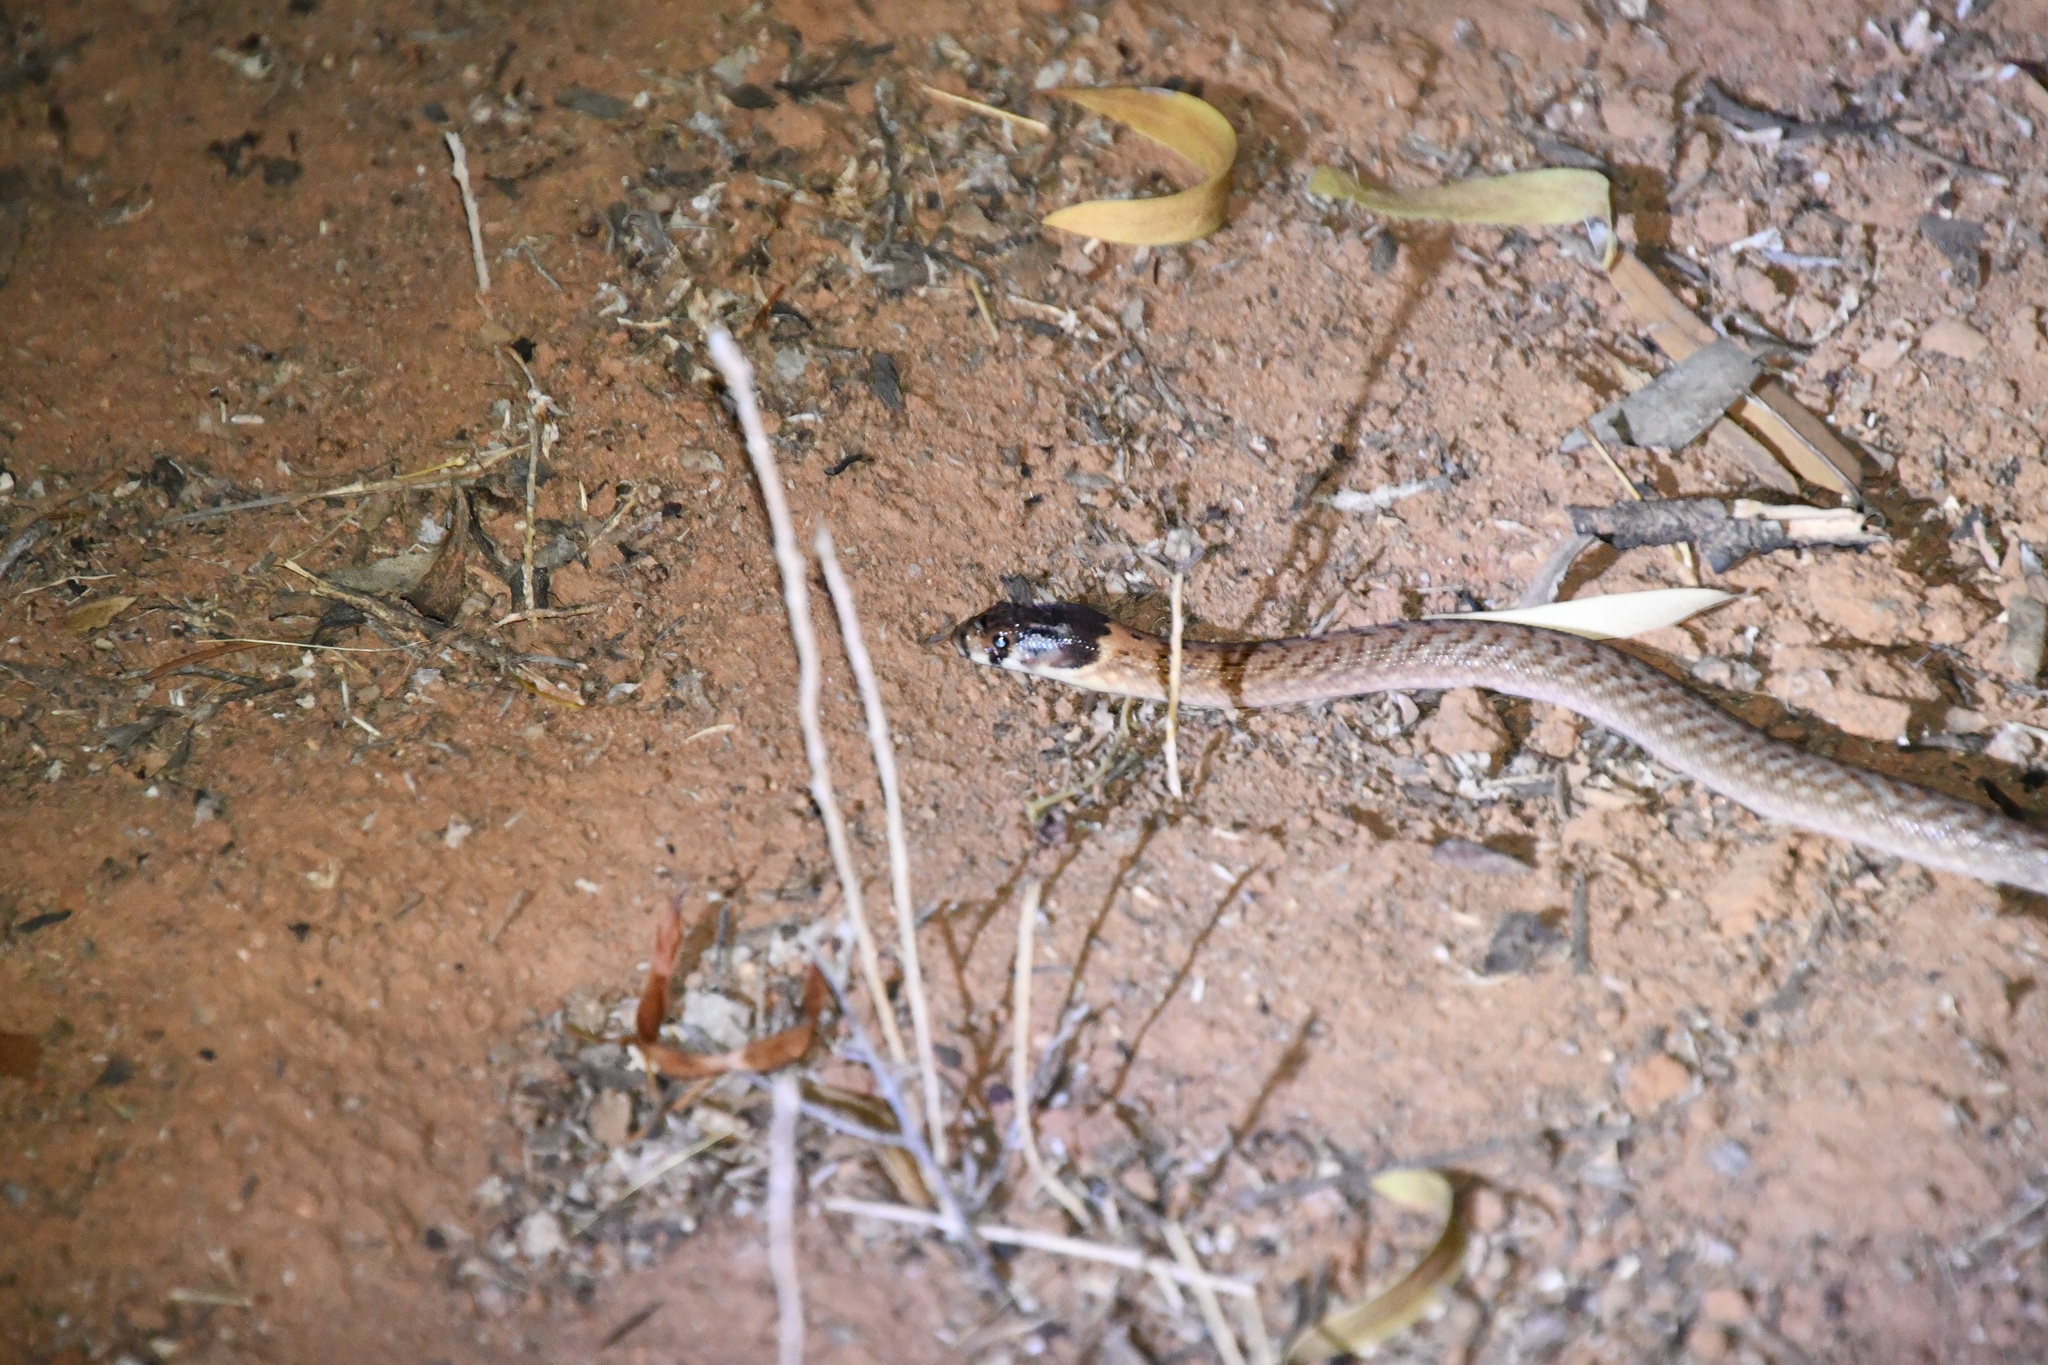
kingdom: Animalia
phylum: Chordata
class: Squamata
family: Pygopodidae
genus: Pygopus
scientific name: Pygopus schraderi
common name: Eastern scaly-foot
